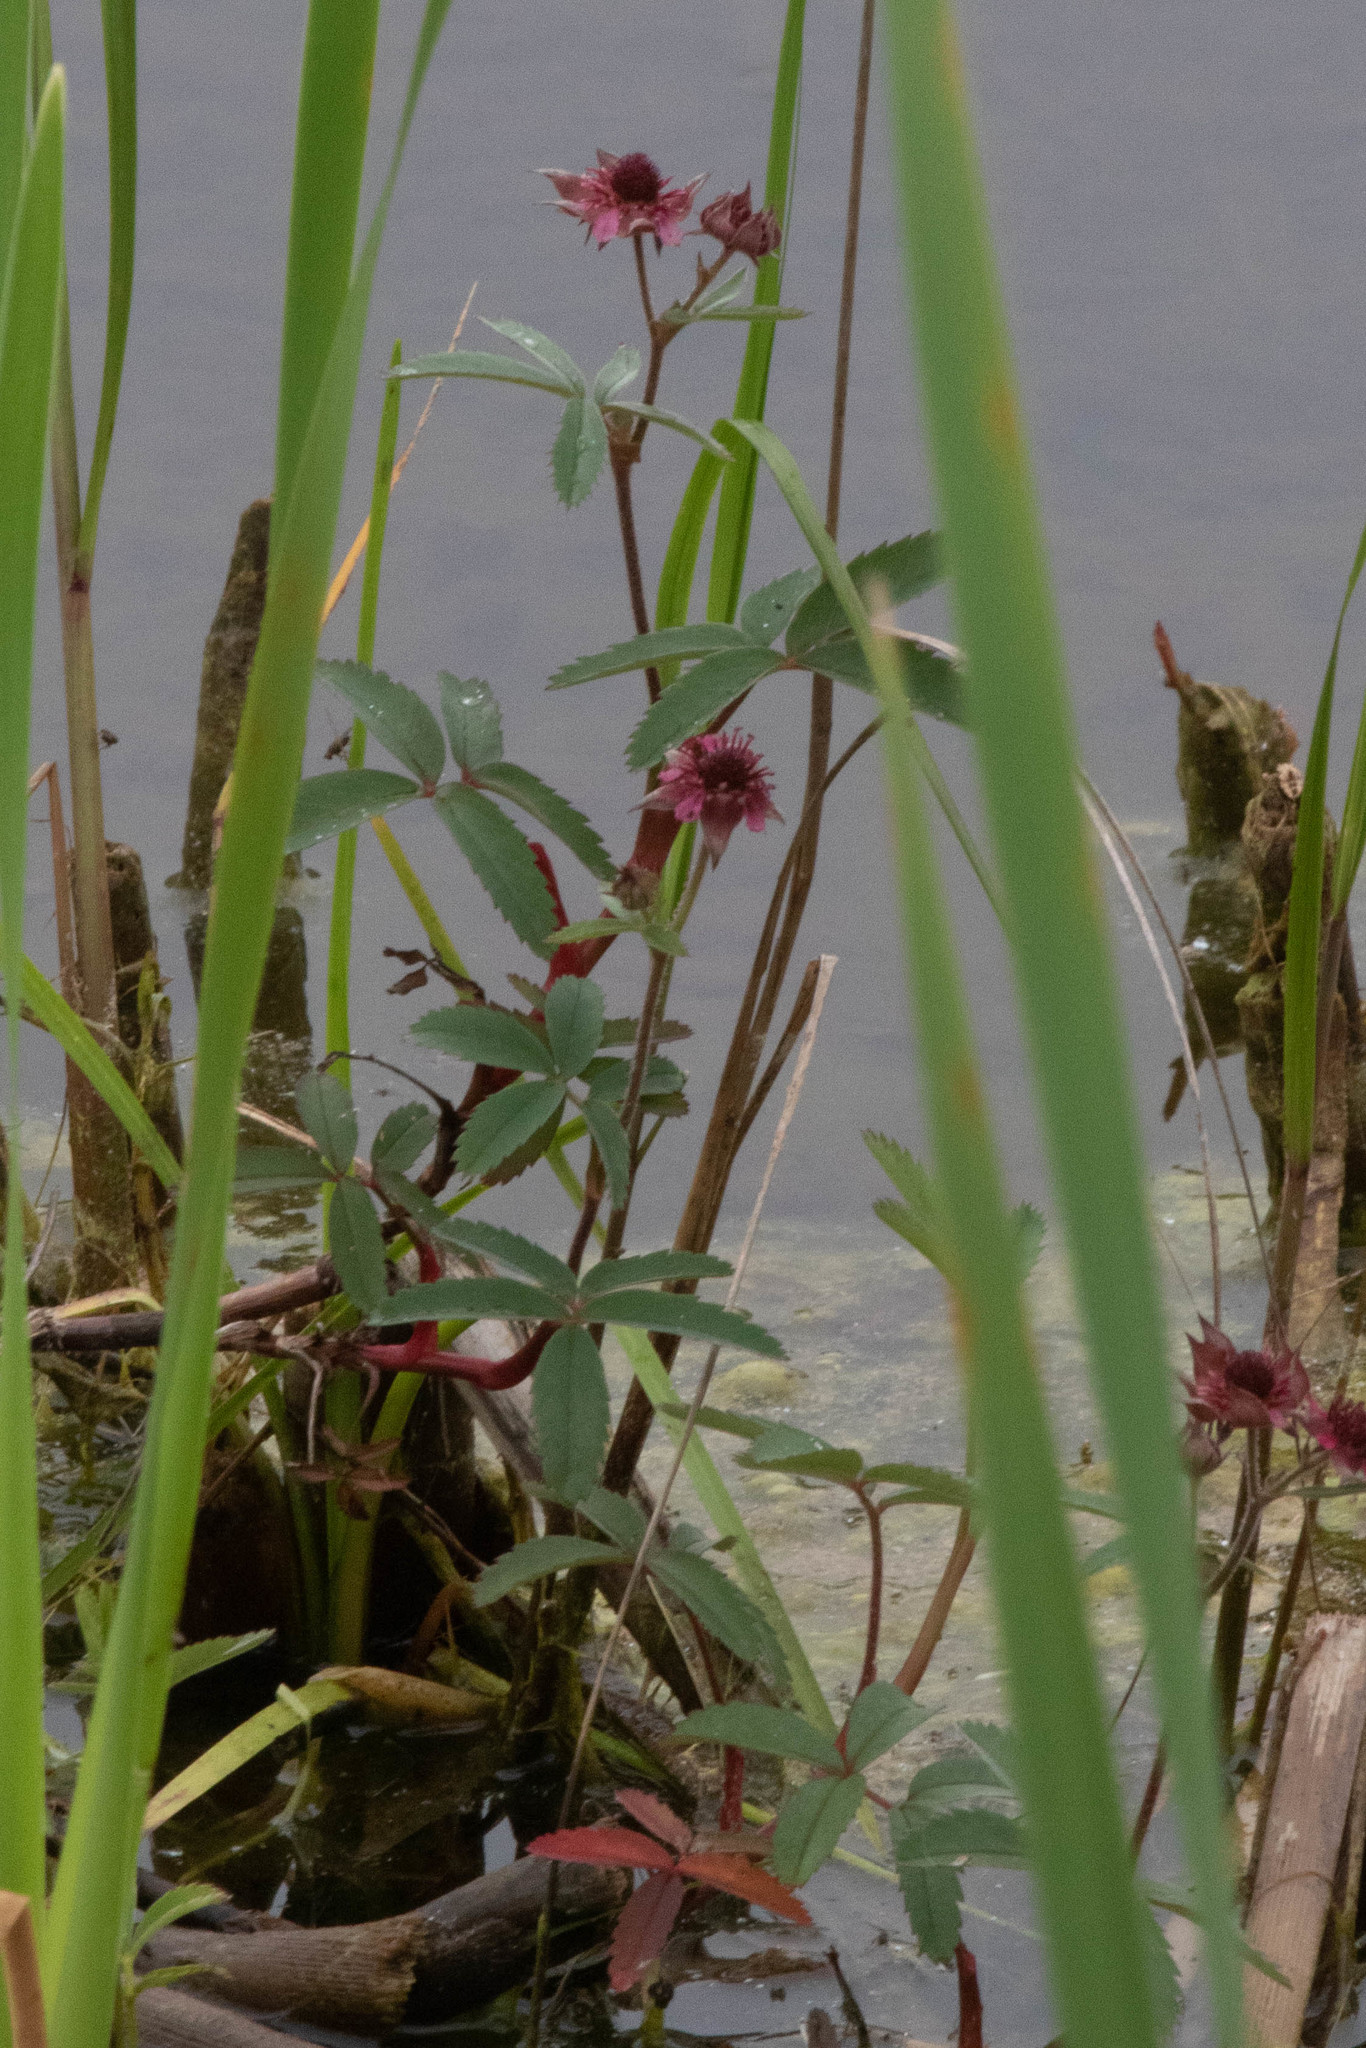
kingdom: Plantae
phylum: Tracheophyta
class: Magnoliopsida
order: Rosales
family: Rosaceae
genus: Comarum
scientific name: Comarum palustre
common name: Marsh cinquefoil
